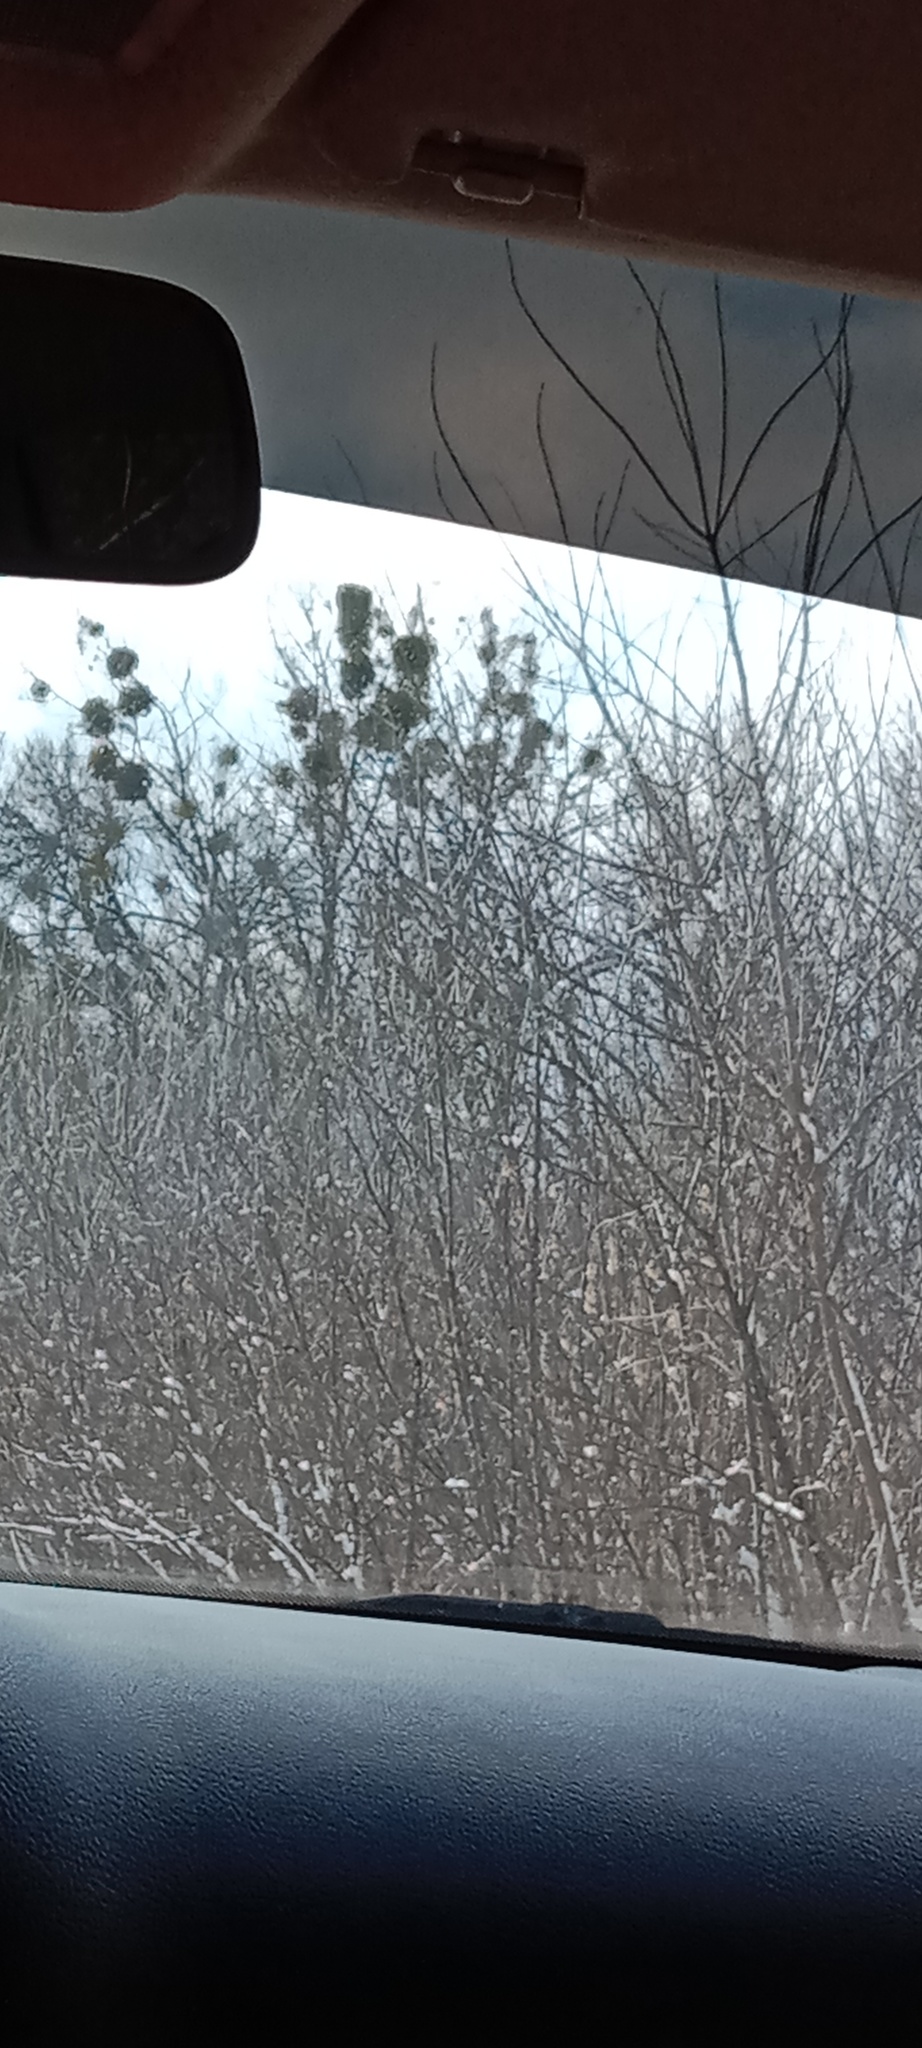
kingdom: Plantae
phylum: Tracheophyta
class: Magnoliopsida
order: Santalales
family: Viscaceae
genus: Viscum
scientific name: Viscum album
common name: Mistletoe
